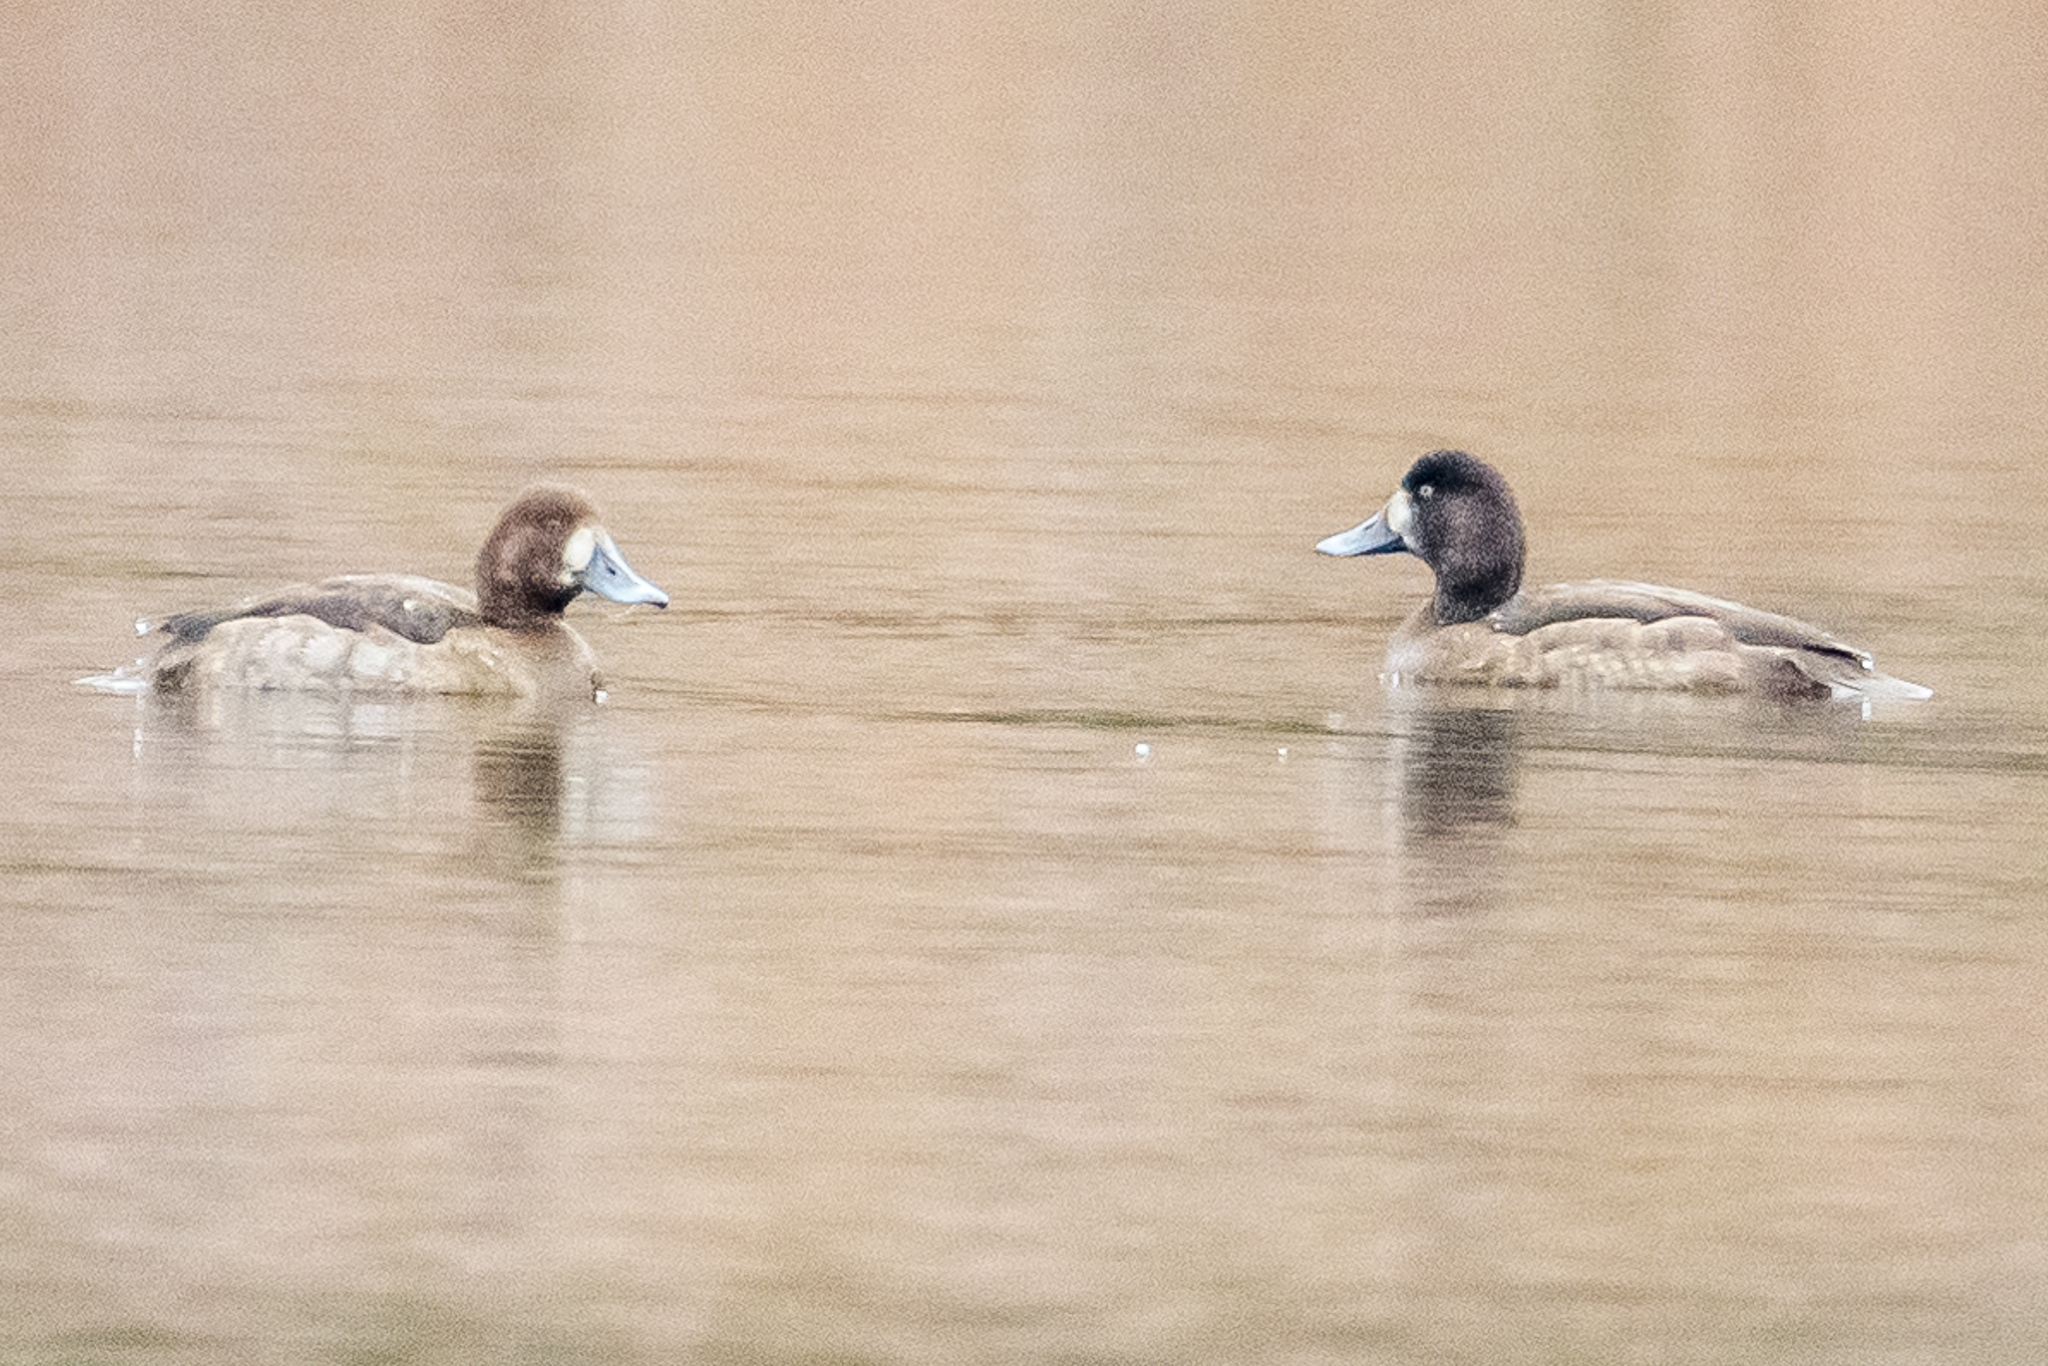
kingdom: Animalia
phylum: Chordata
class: Aves
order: Anseriformes
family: Anatidae
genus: Aythya
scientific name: Aythya marila
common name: Greater scaup
